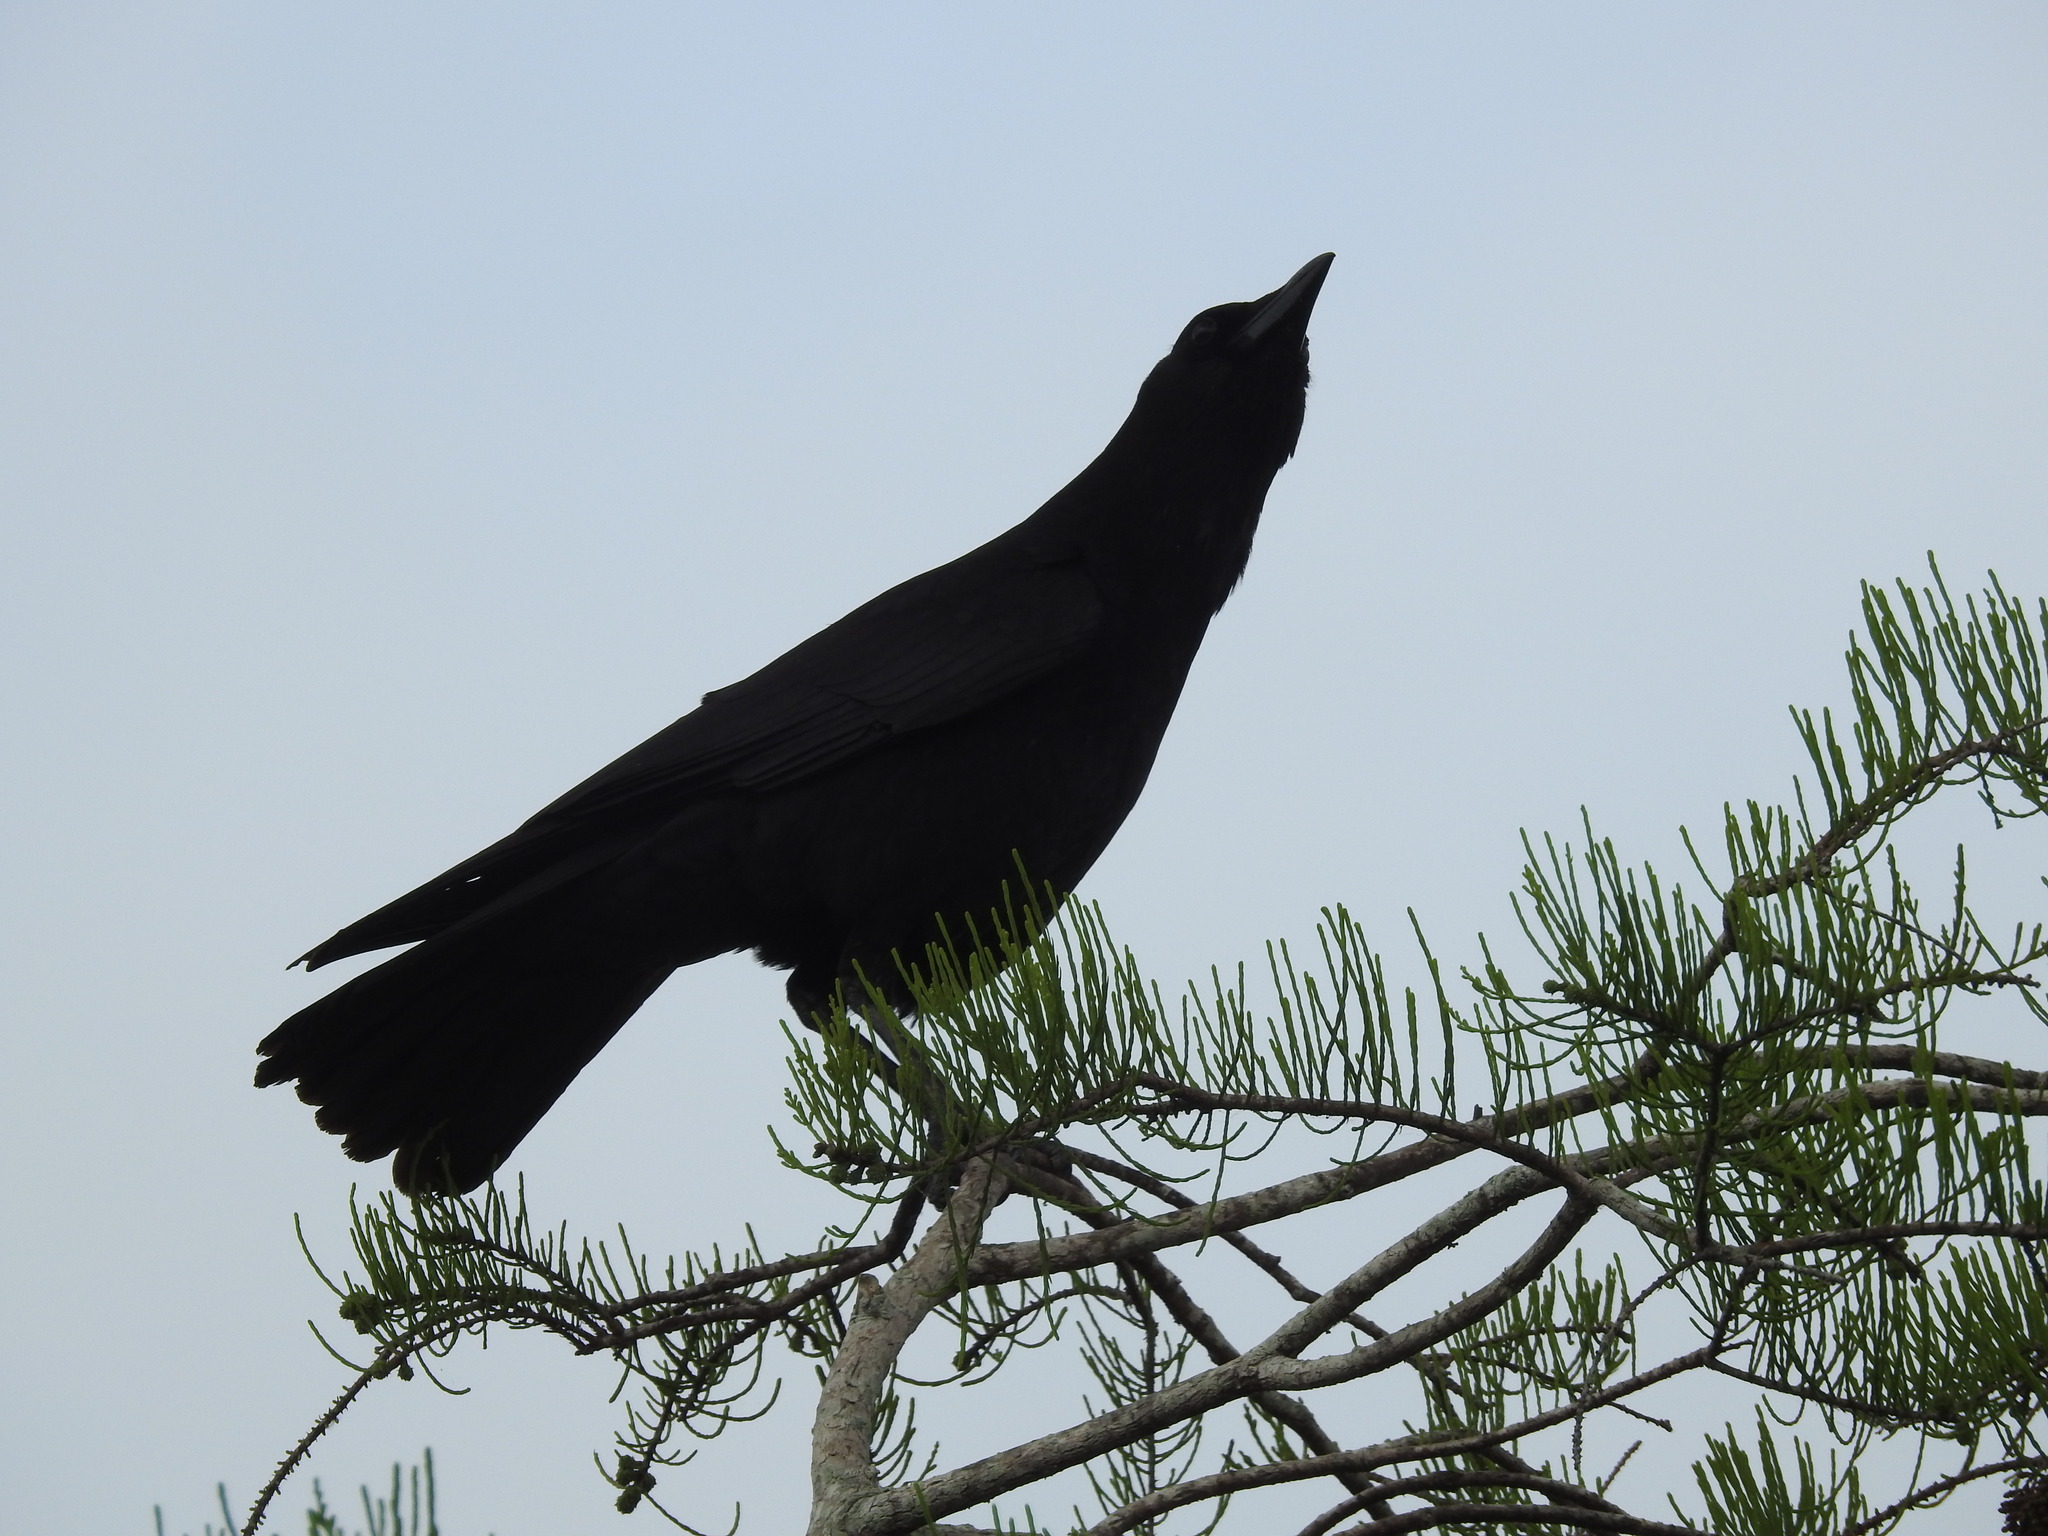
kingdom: Animalia
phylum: Chordata
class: Aves
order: Passeriformes
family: Icteridae
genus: Quiscalus
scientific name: Quiscalus major
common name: Boat-tailed grackle
